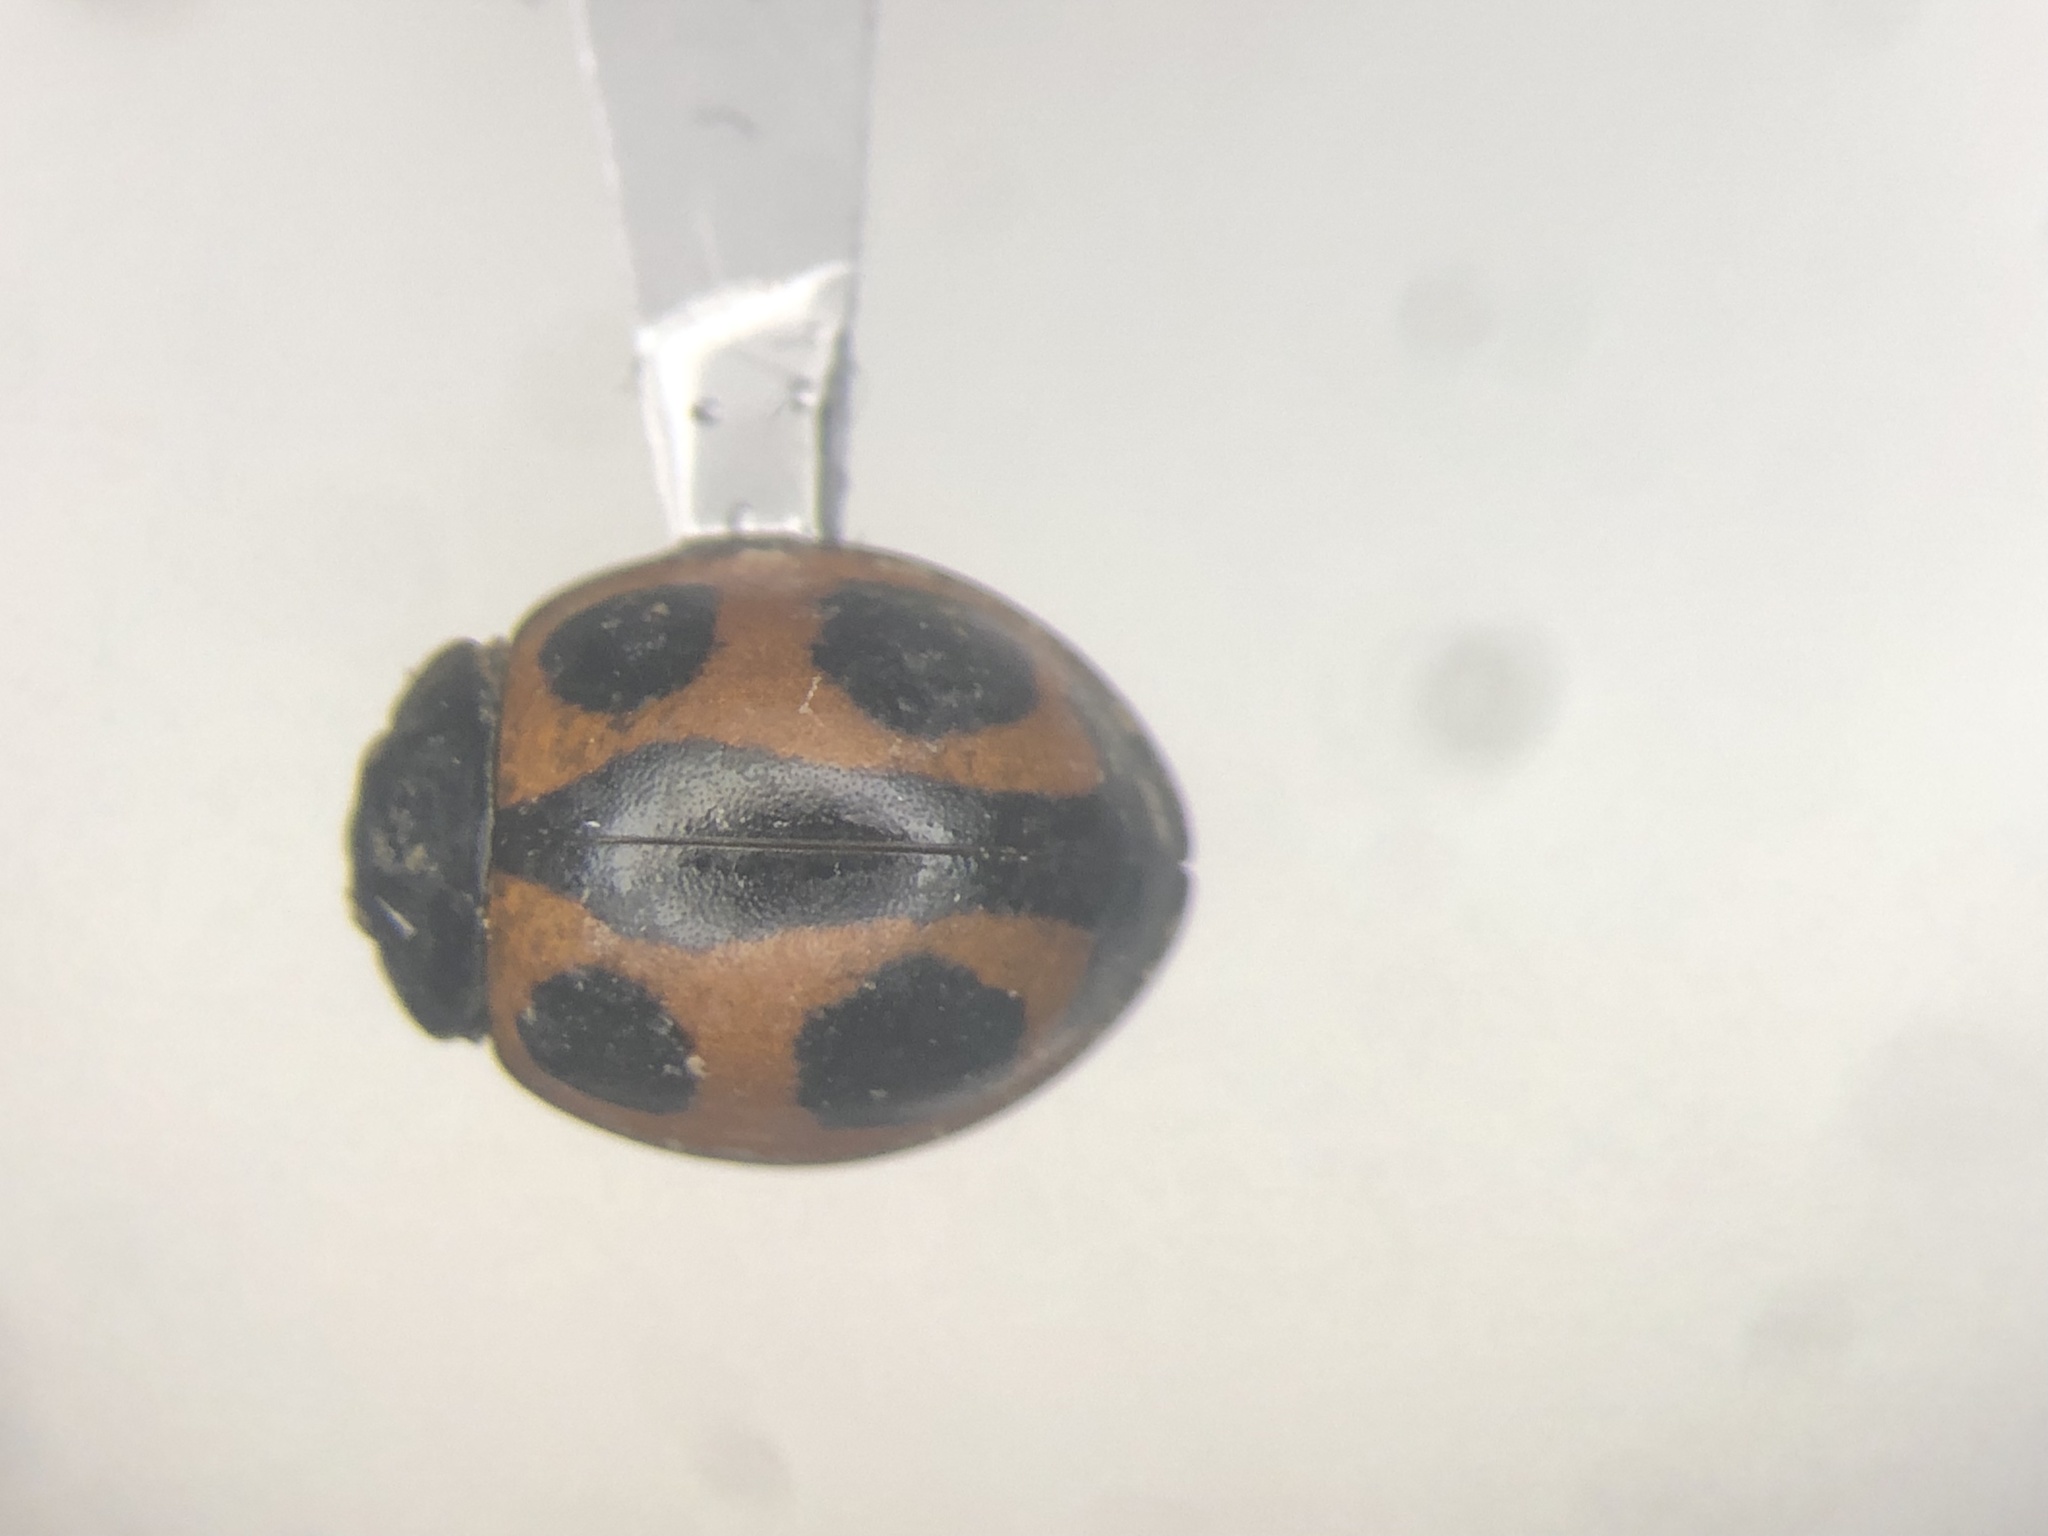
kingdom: Animalia
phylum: Arthropoda
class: Insecta
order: Coleoptera
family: Coccinellidae
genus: Brumoides
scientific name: Brumoides septentrionis
